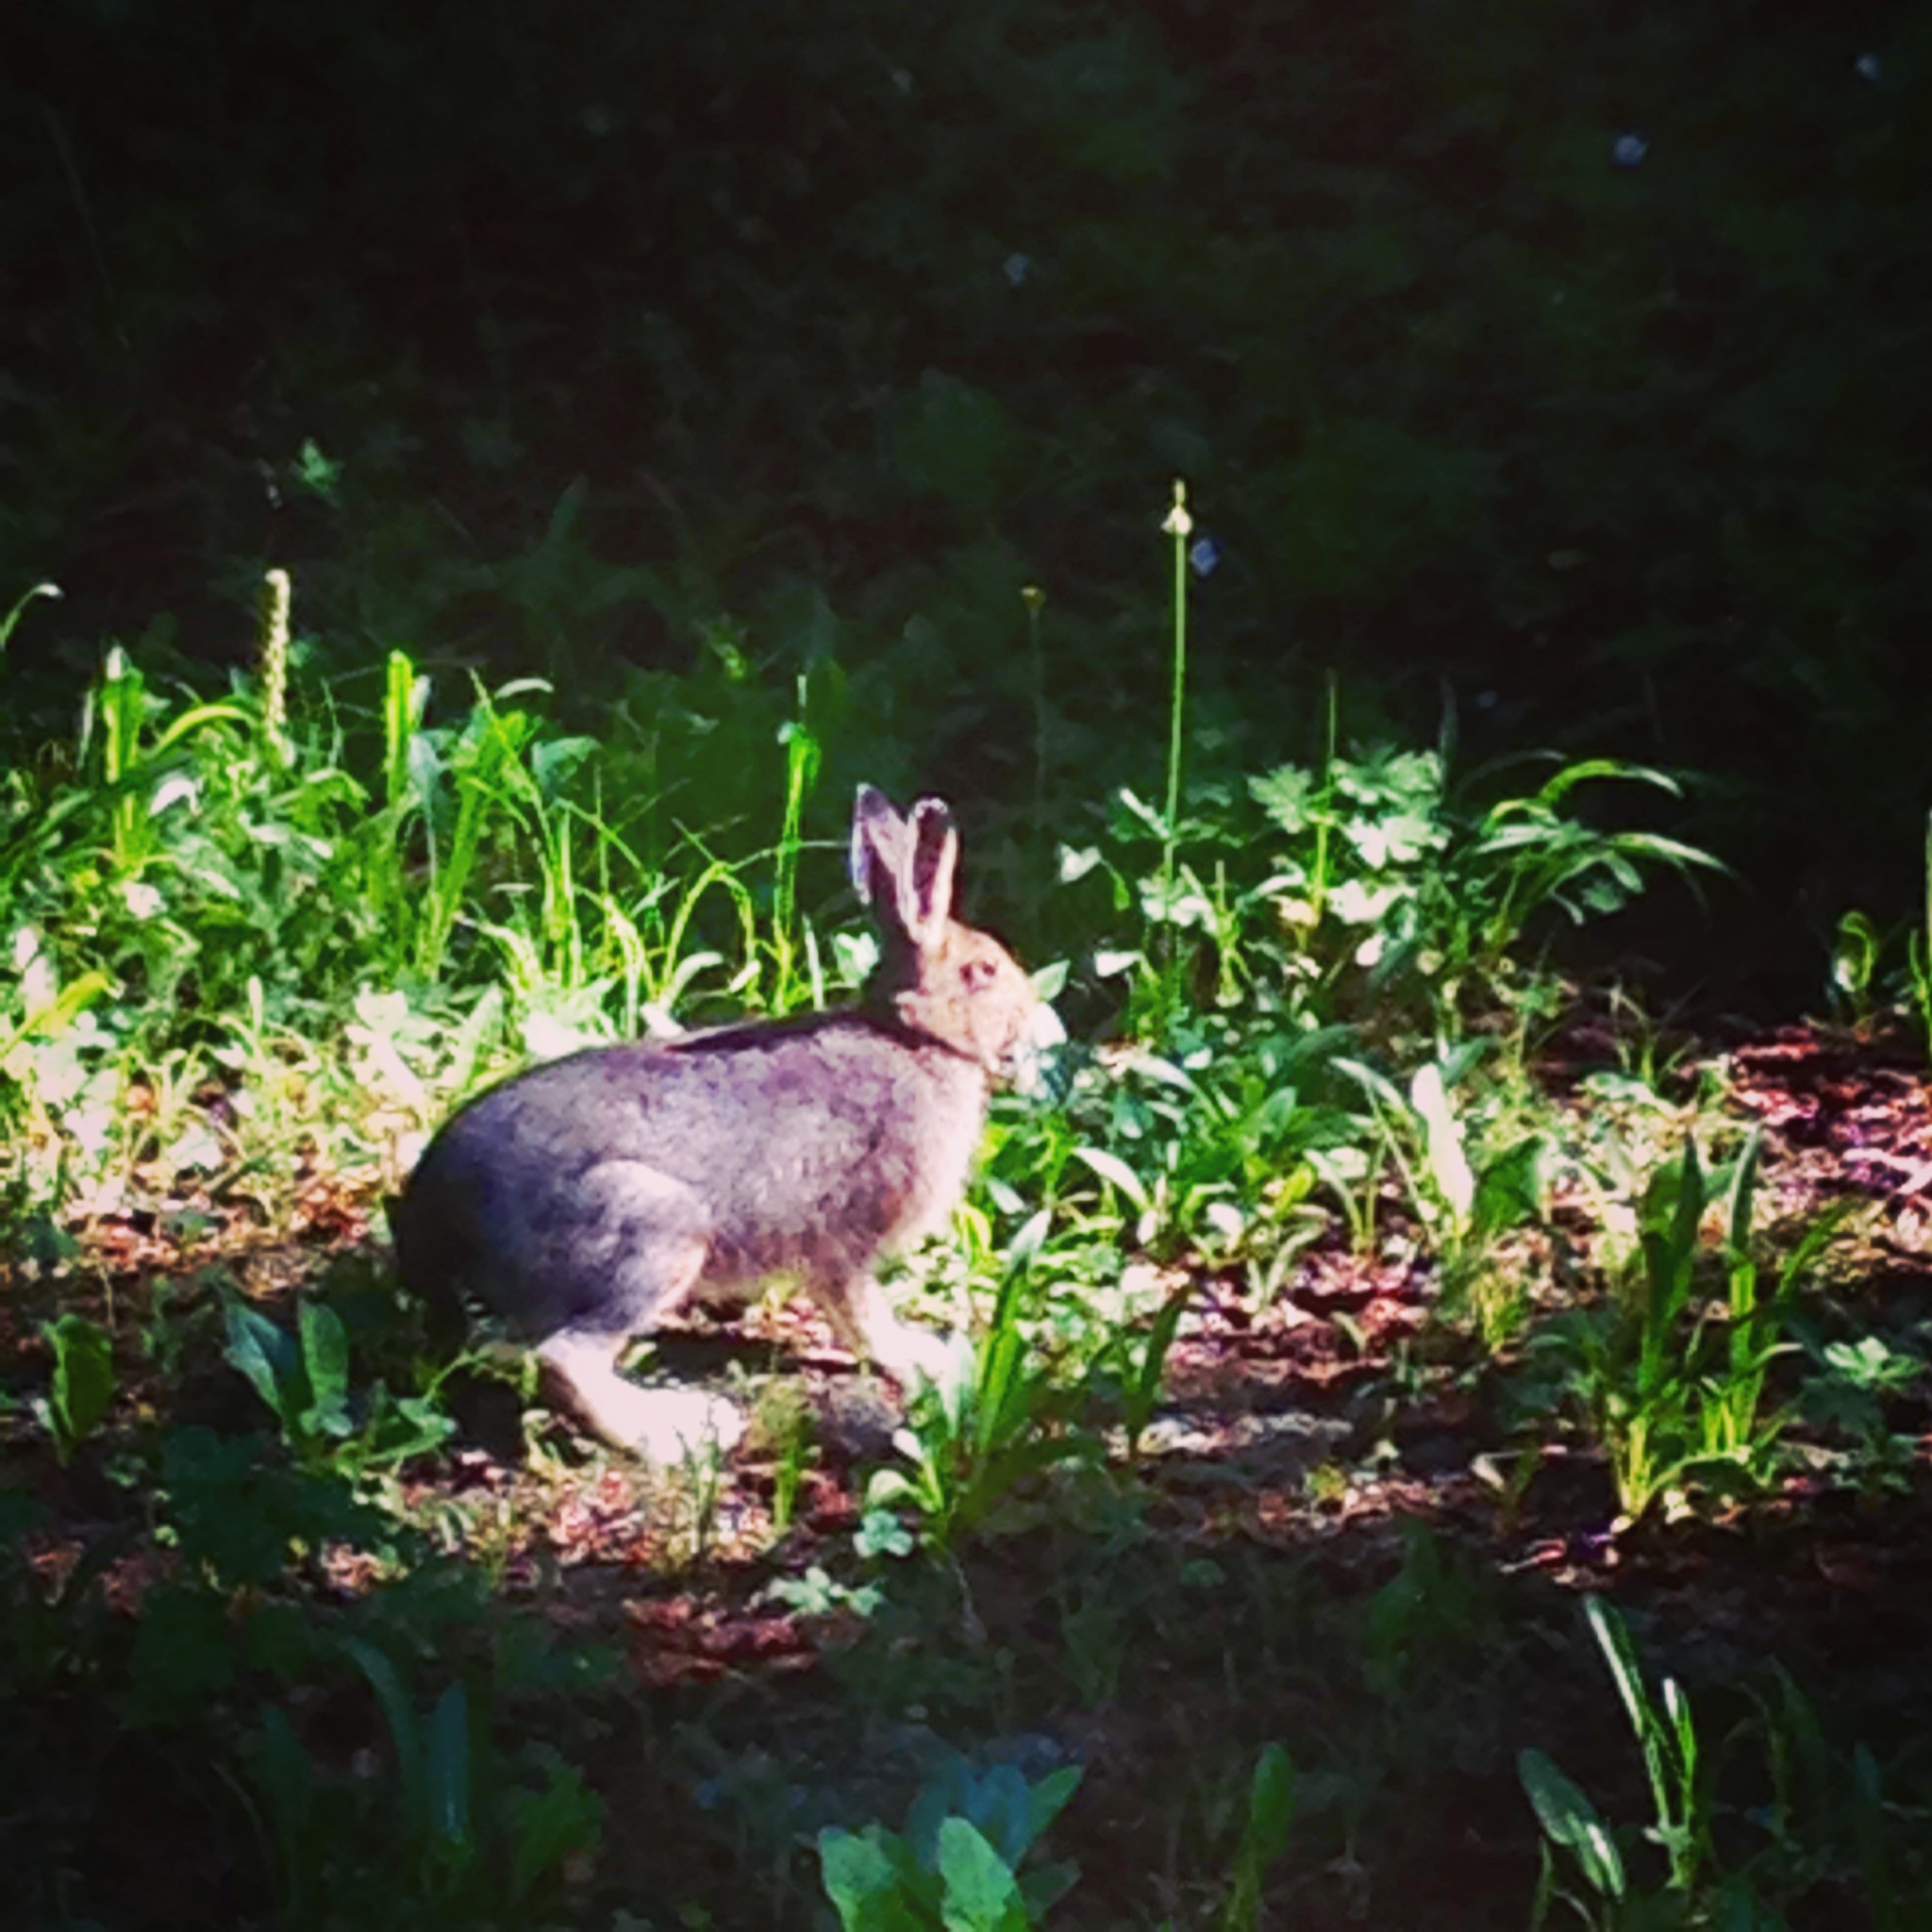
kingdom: Animalia
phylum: Chordata
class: Mammalia
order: Lagomorpha
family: Leporidae
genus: Lepus
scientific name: Lepus americanus
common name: Snowshoe hare
